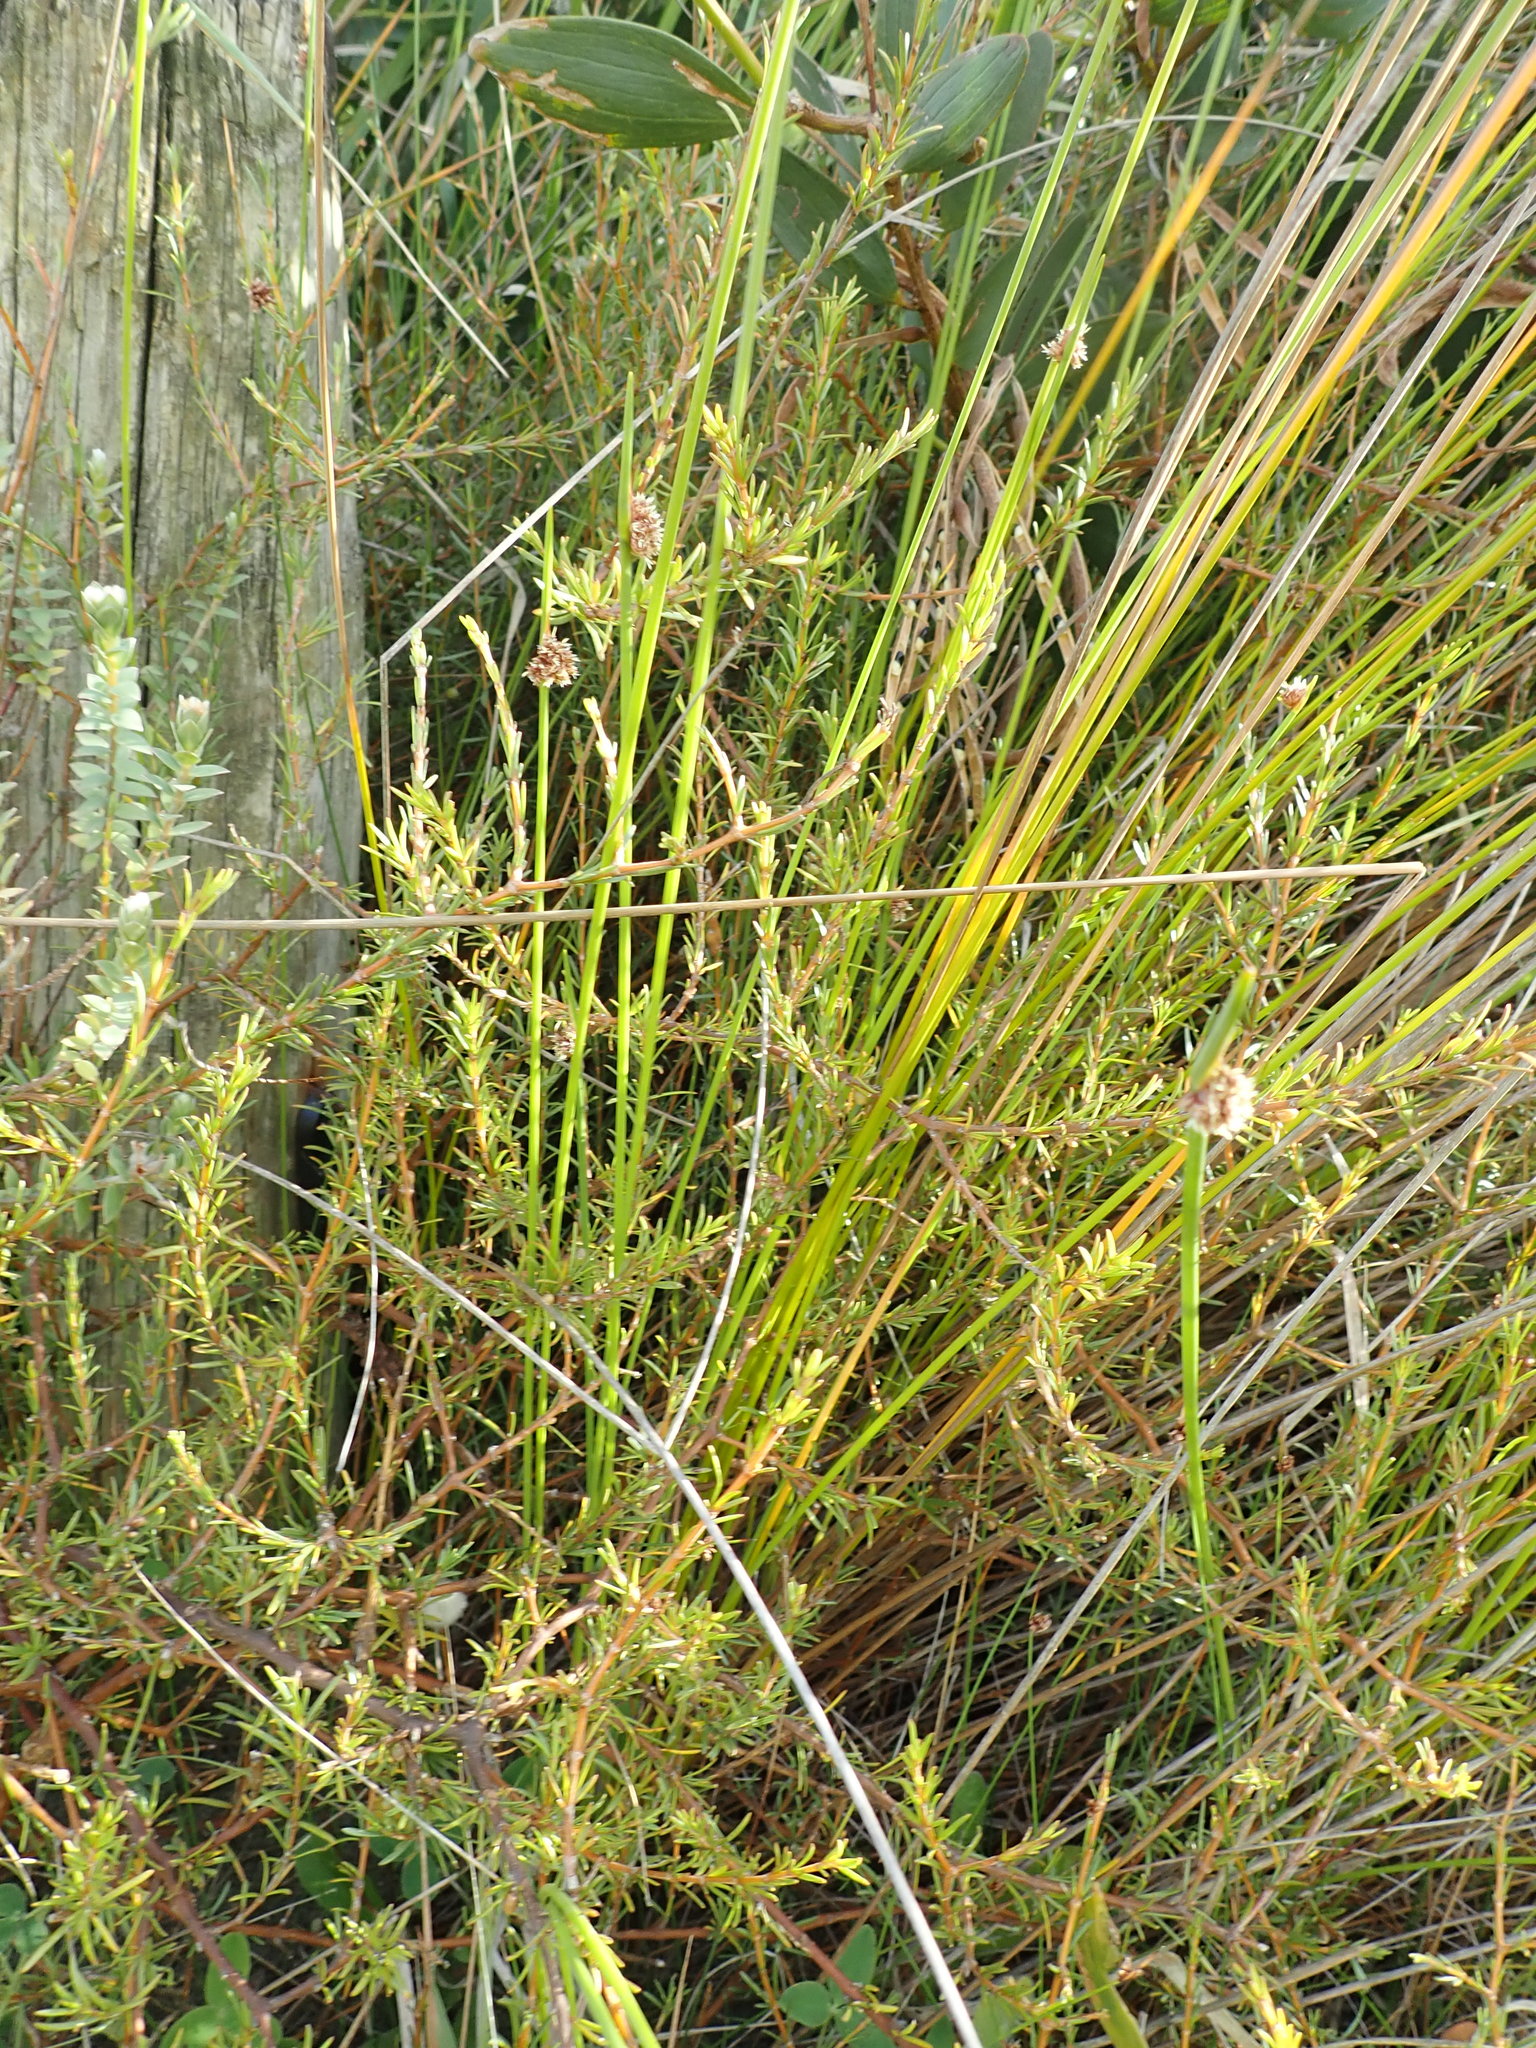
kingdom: Plantae
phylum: Tracheophyta
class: Magnoliopsida
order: Gentianales
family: Rubiaceae
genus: Coprosma
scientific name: Coprosma acerosa
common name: Sand coprosma
